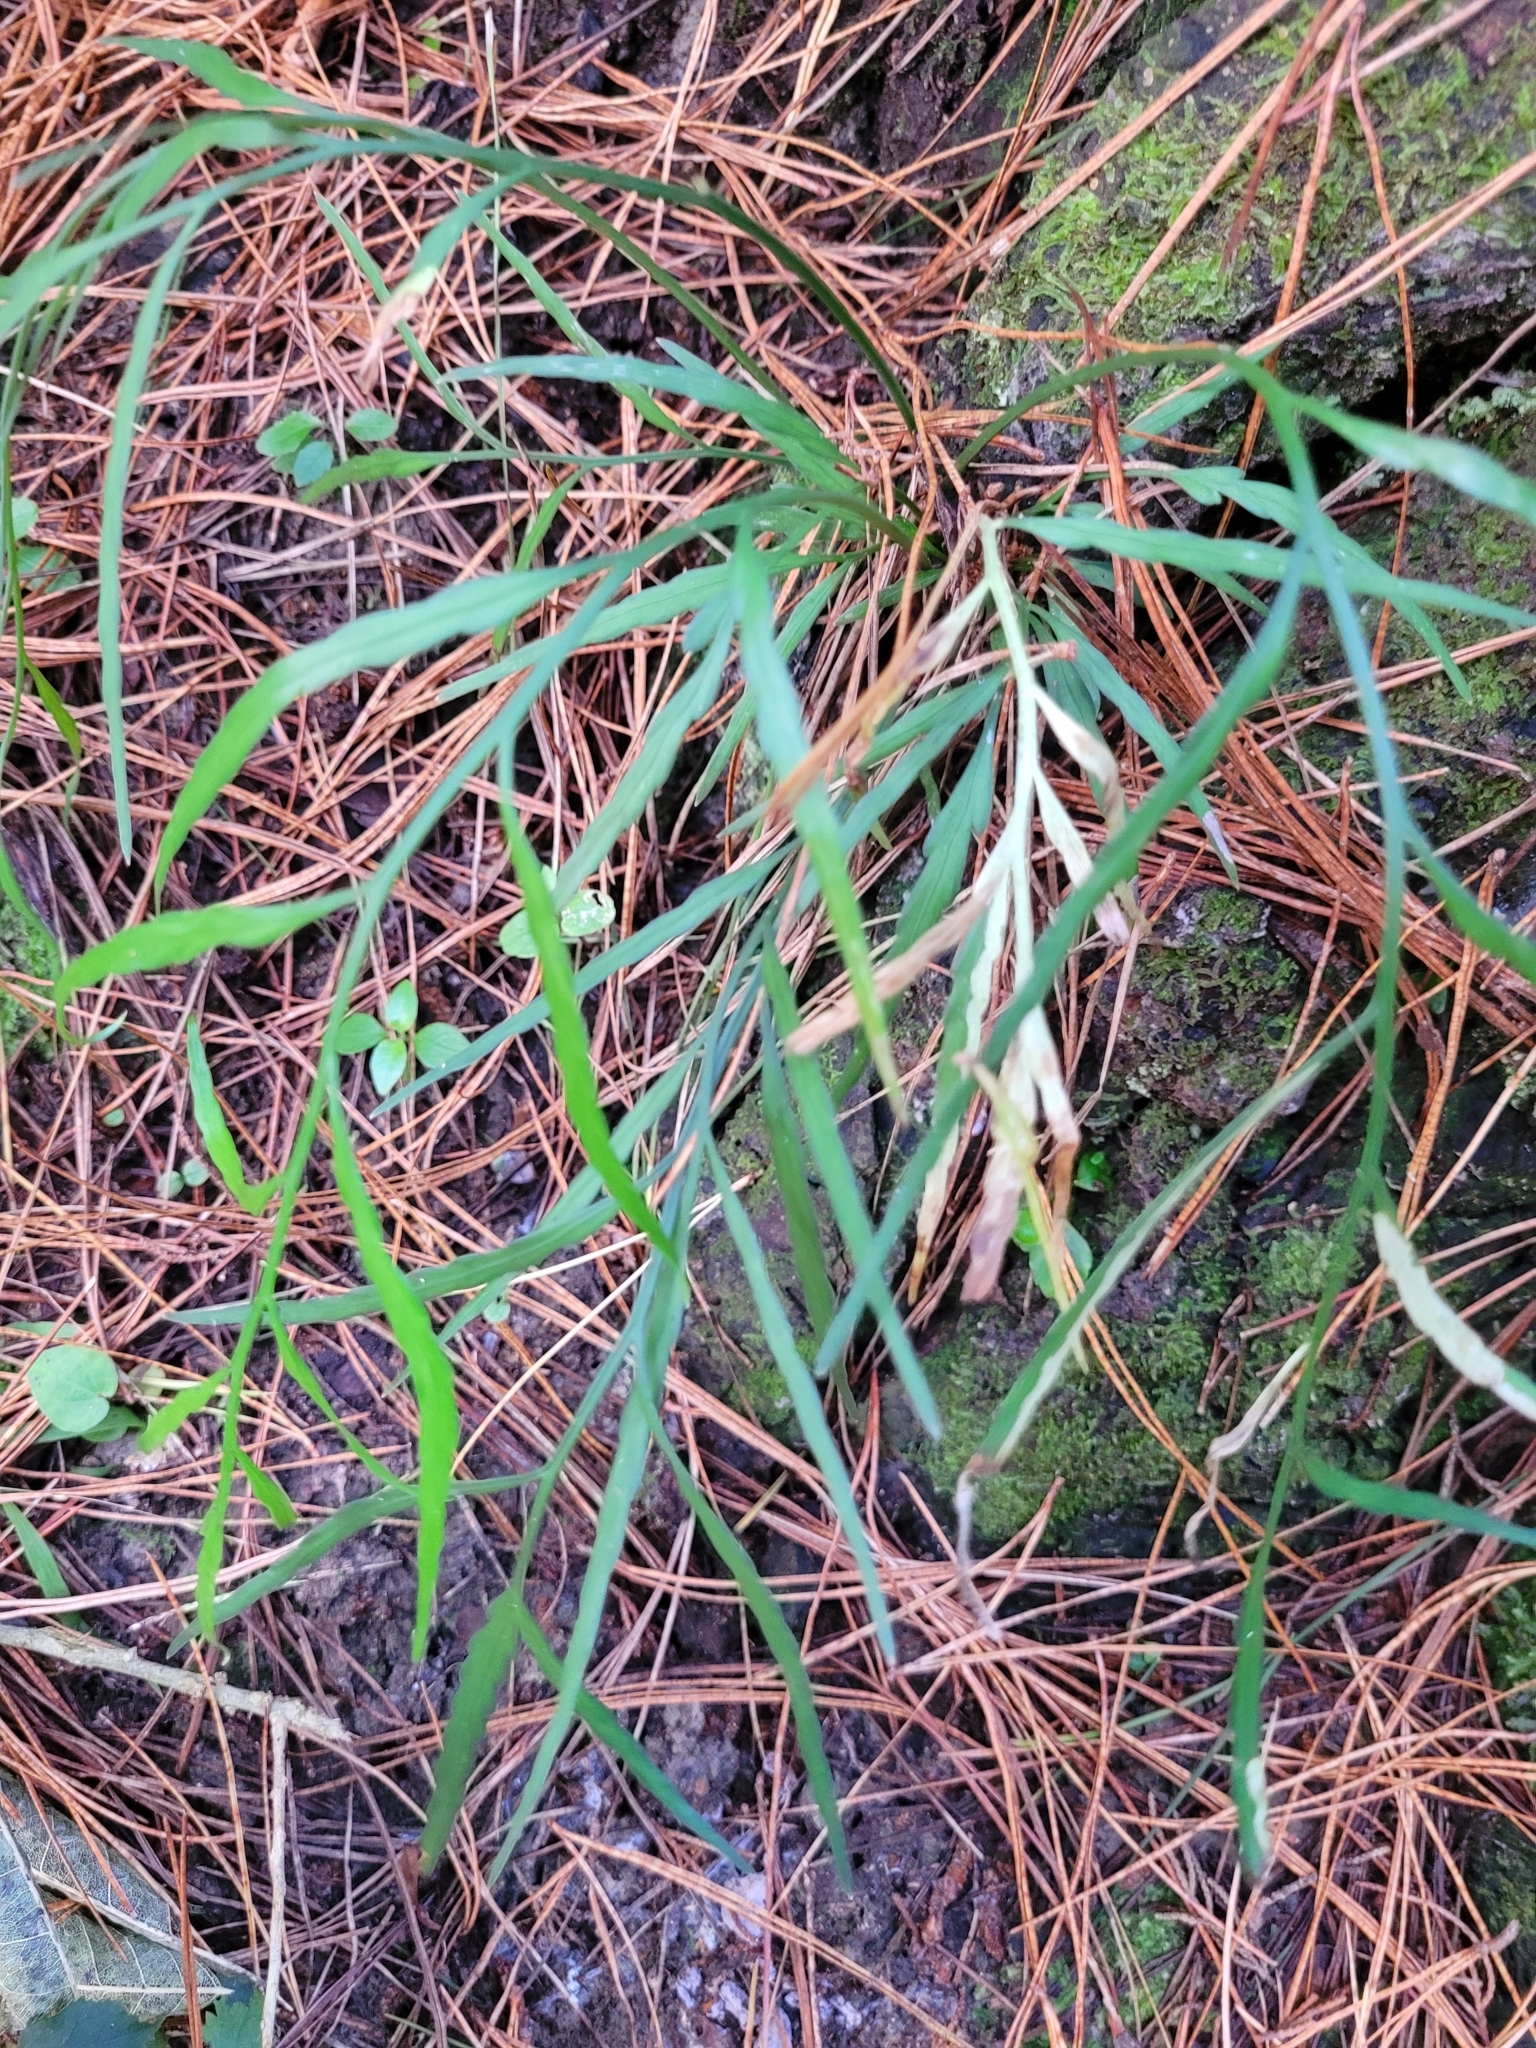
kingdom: Plantae
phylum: Tracheophyta
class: Polypodiopsida
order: Polypodiales
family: Aspleniaceae
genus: Asplenium
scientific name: Asplenium flaccidum
